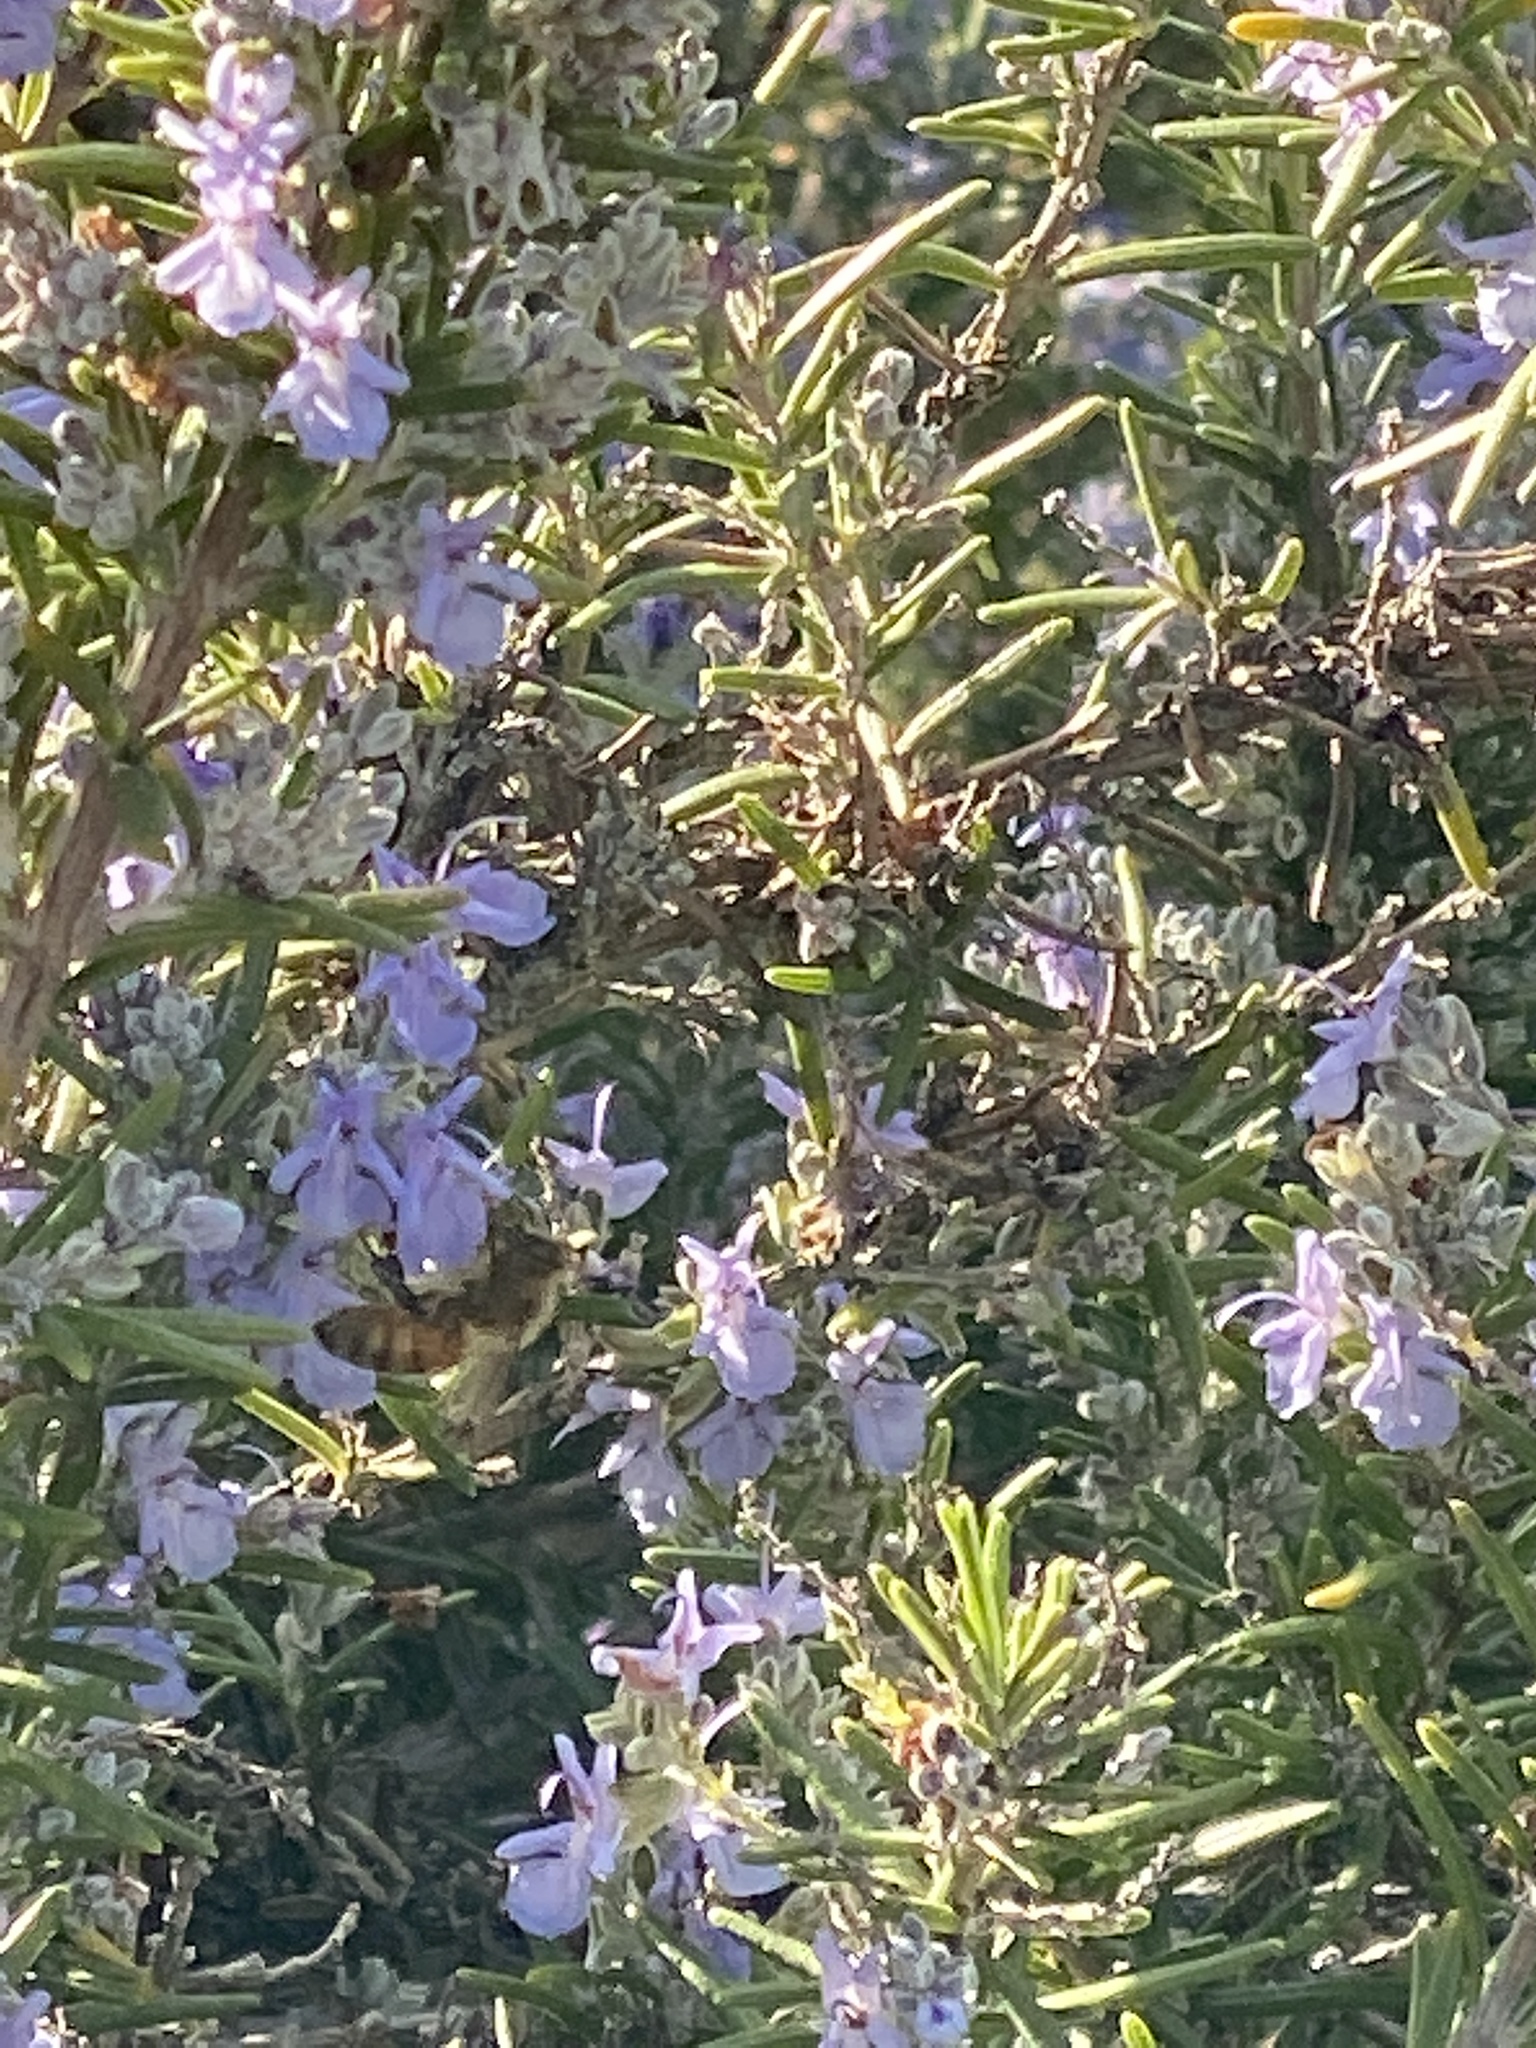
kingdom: Animalia
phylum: Arthropoda
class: Insecta
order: Hymenoptera
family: Apidae
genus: Apis
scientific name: Apis mellifera
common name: Honey bee
